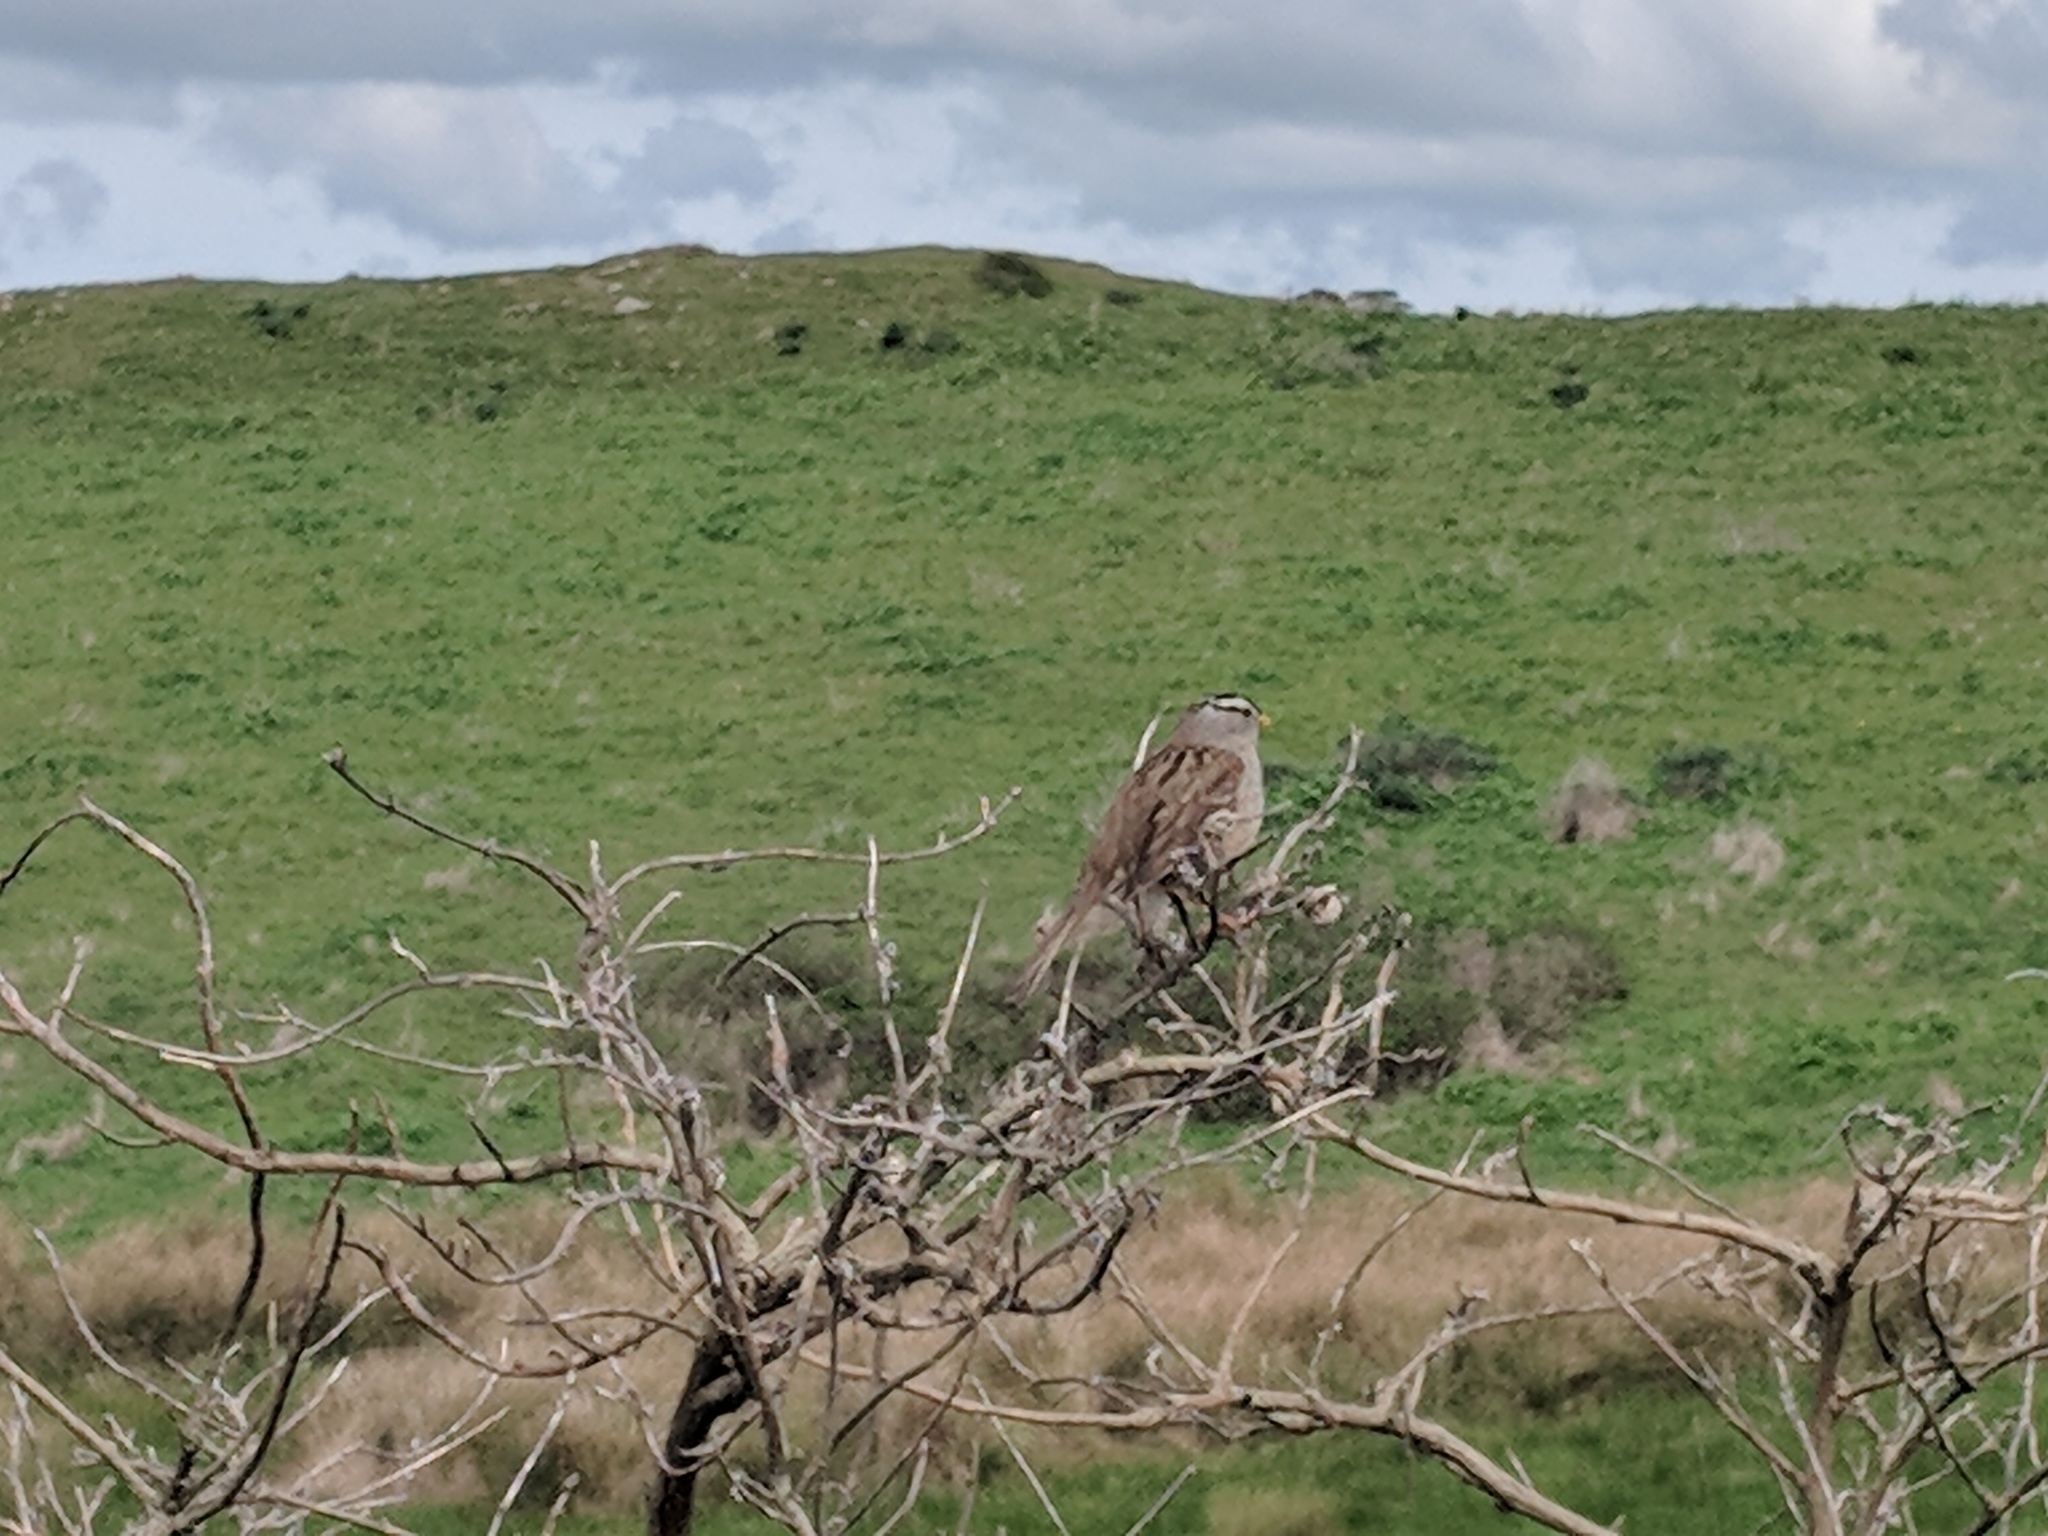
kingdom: Animalia
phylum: Chordata
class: Aves
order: Passeriformes
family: Passerellidae
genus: Zonotrichia
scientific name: Zonotrichia leucophrys
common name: White-crowned sparrow
